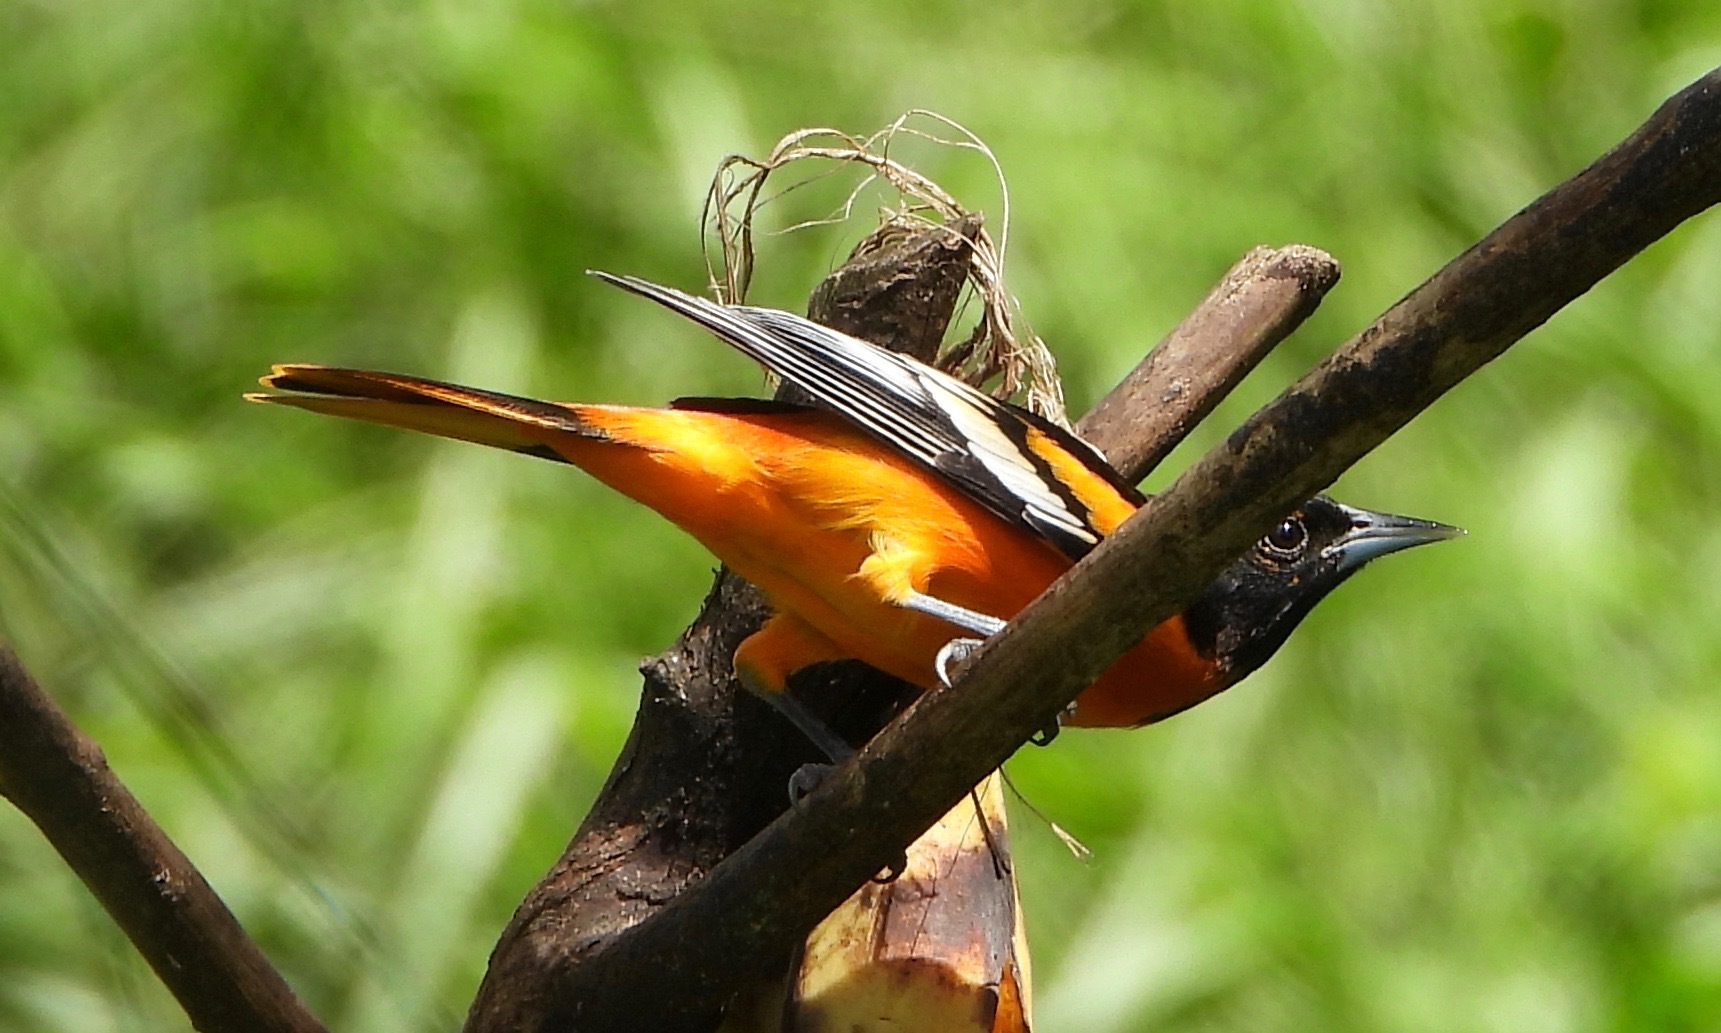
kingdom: Animalia
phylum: Chordata
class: Aves
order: Passeriformes
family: Icteridae
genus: Icterus
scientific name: Icterus galbula
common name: Baltimore oriole
